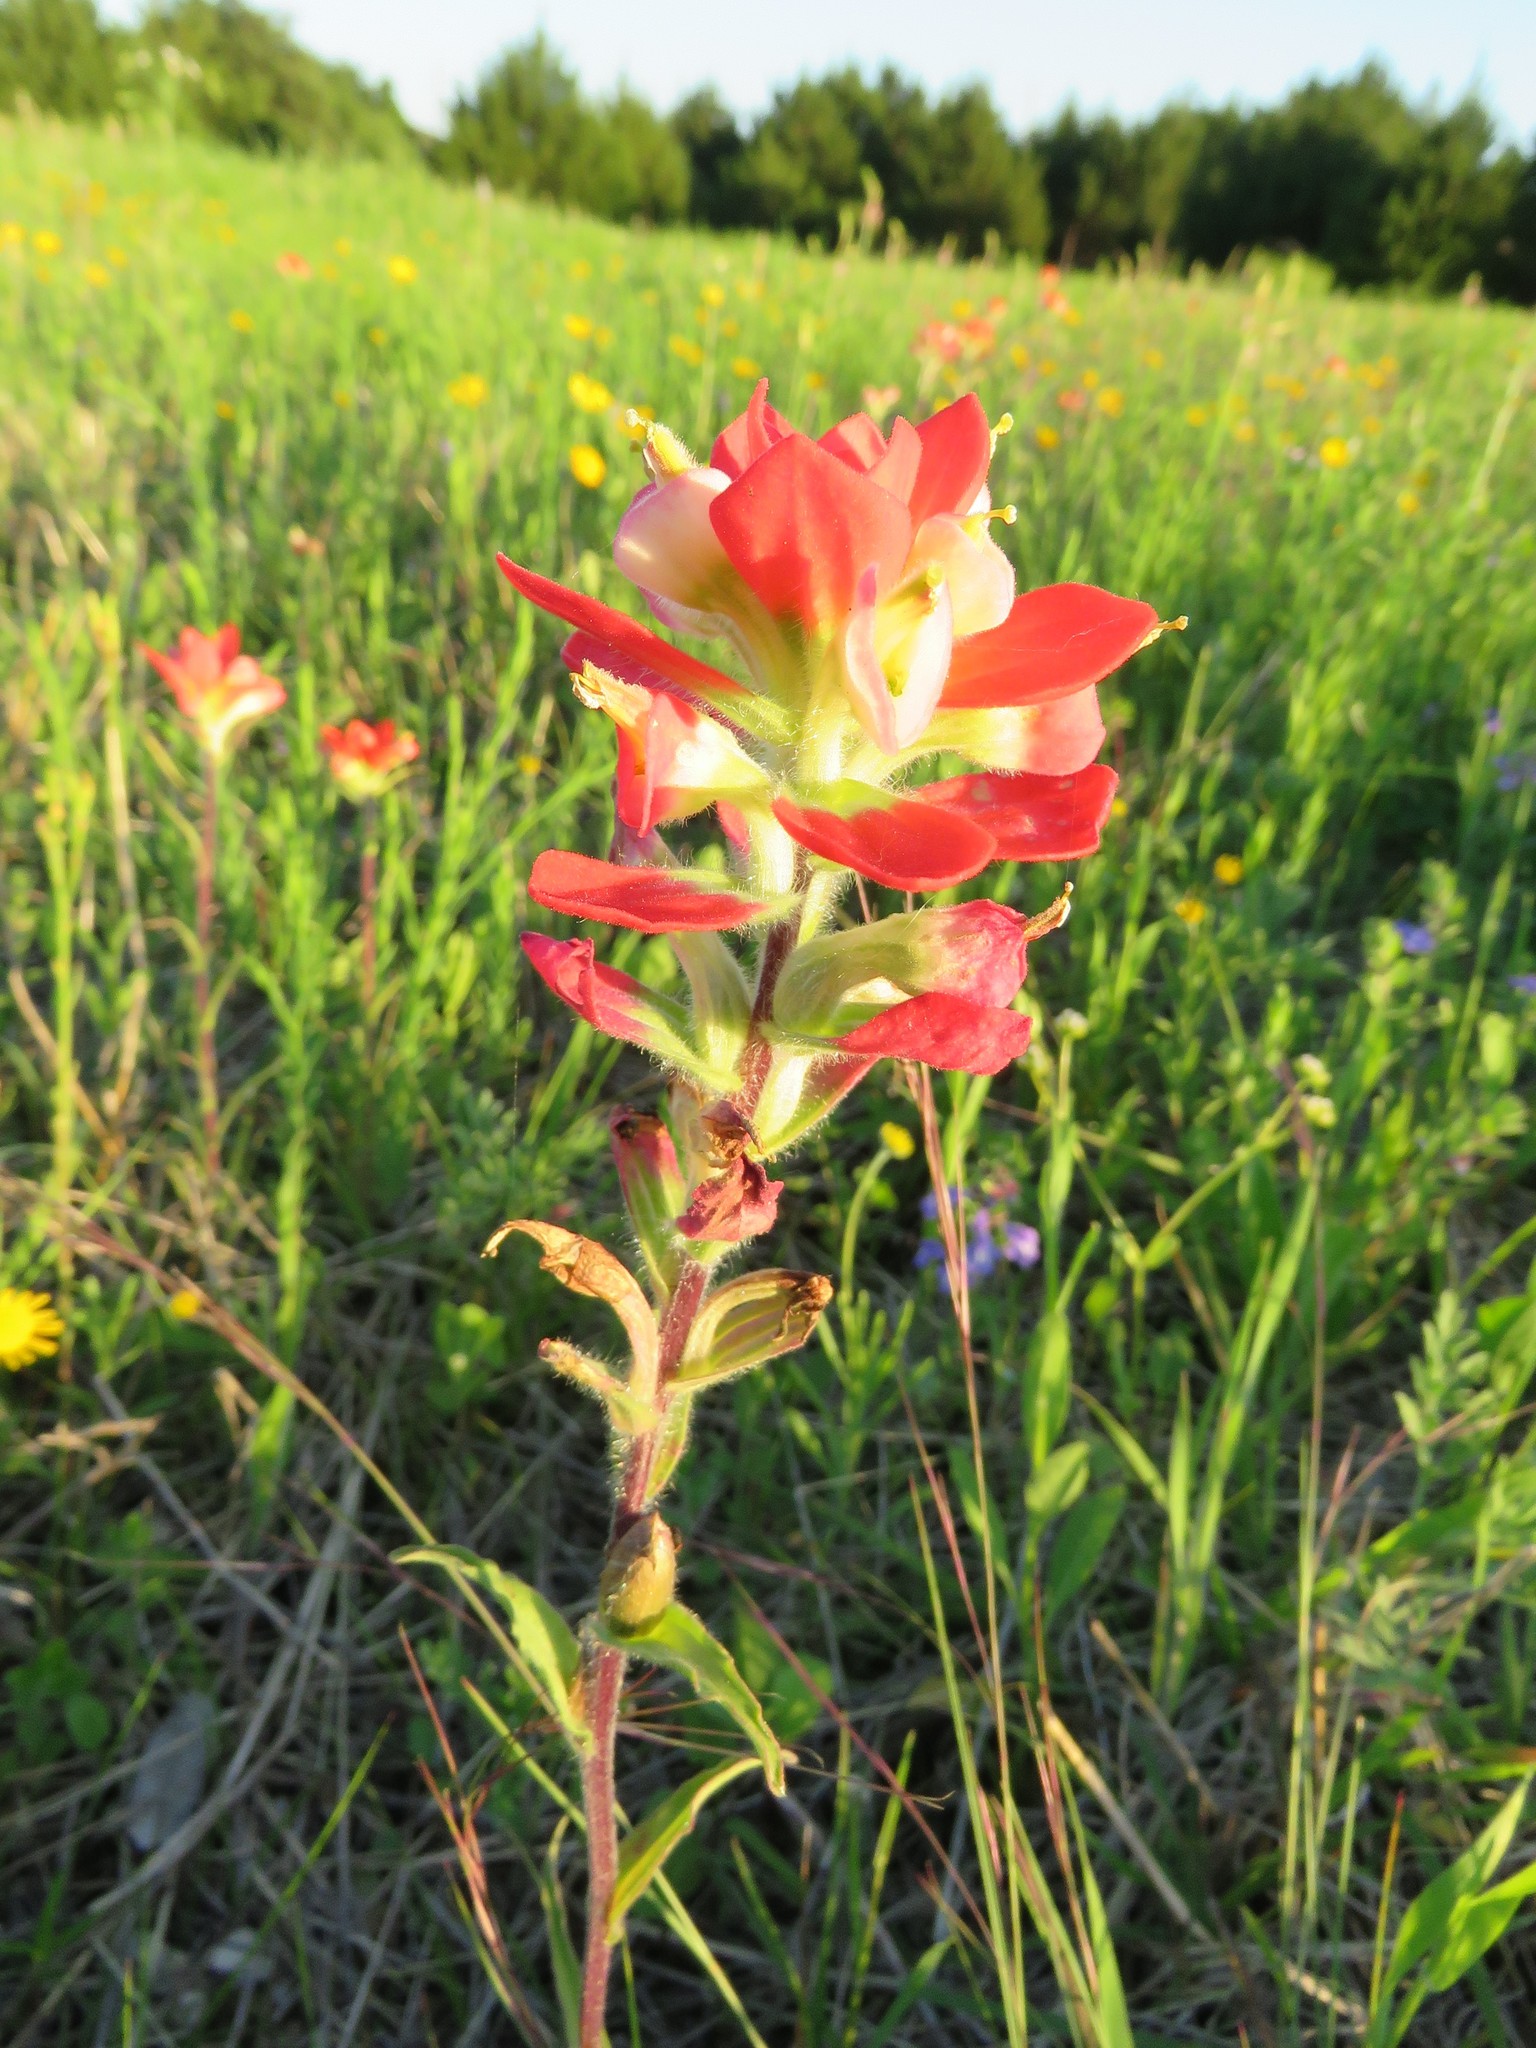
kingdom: Plantae
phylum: Tracheophyta
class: Magnoliopsida
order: Lamiales
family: Orobanchaceae
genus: Castilleja
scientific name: Castilleja indivisa
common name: Texas paintbrush
